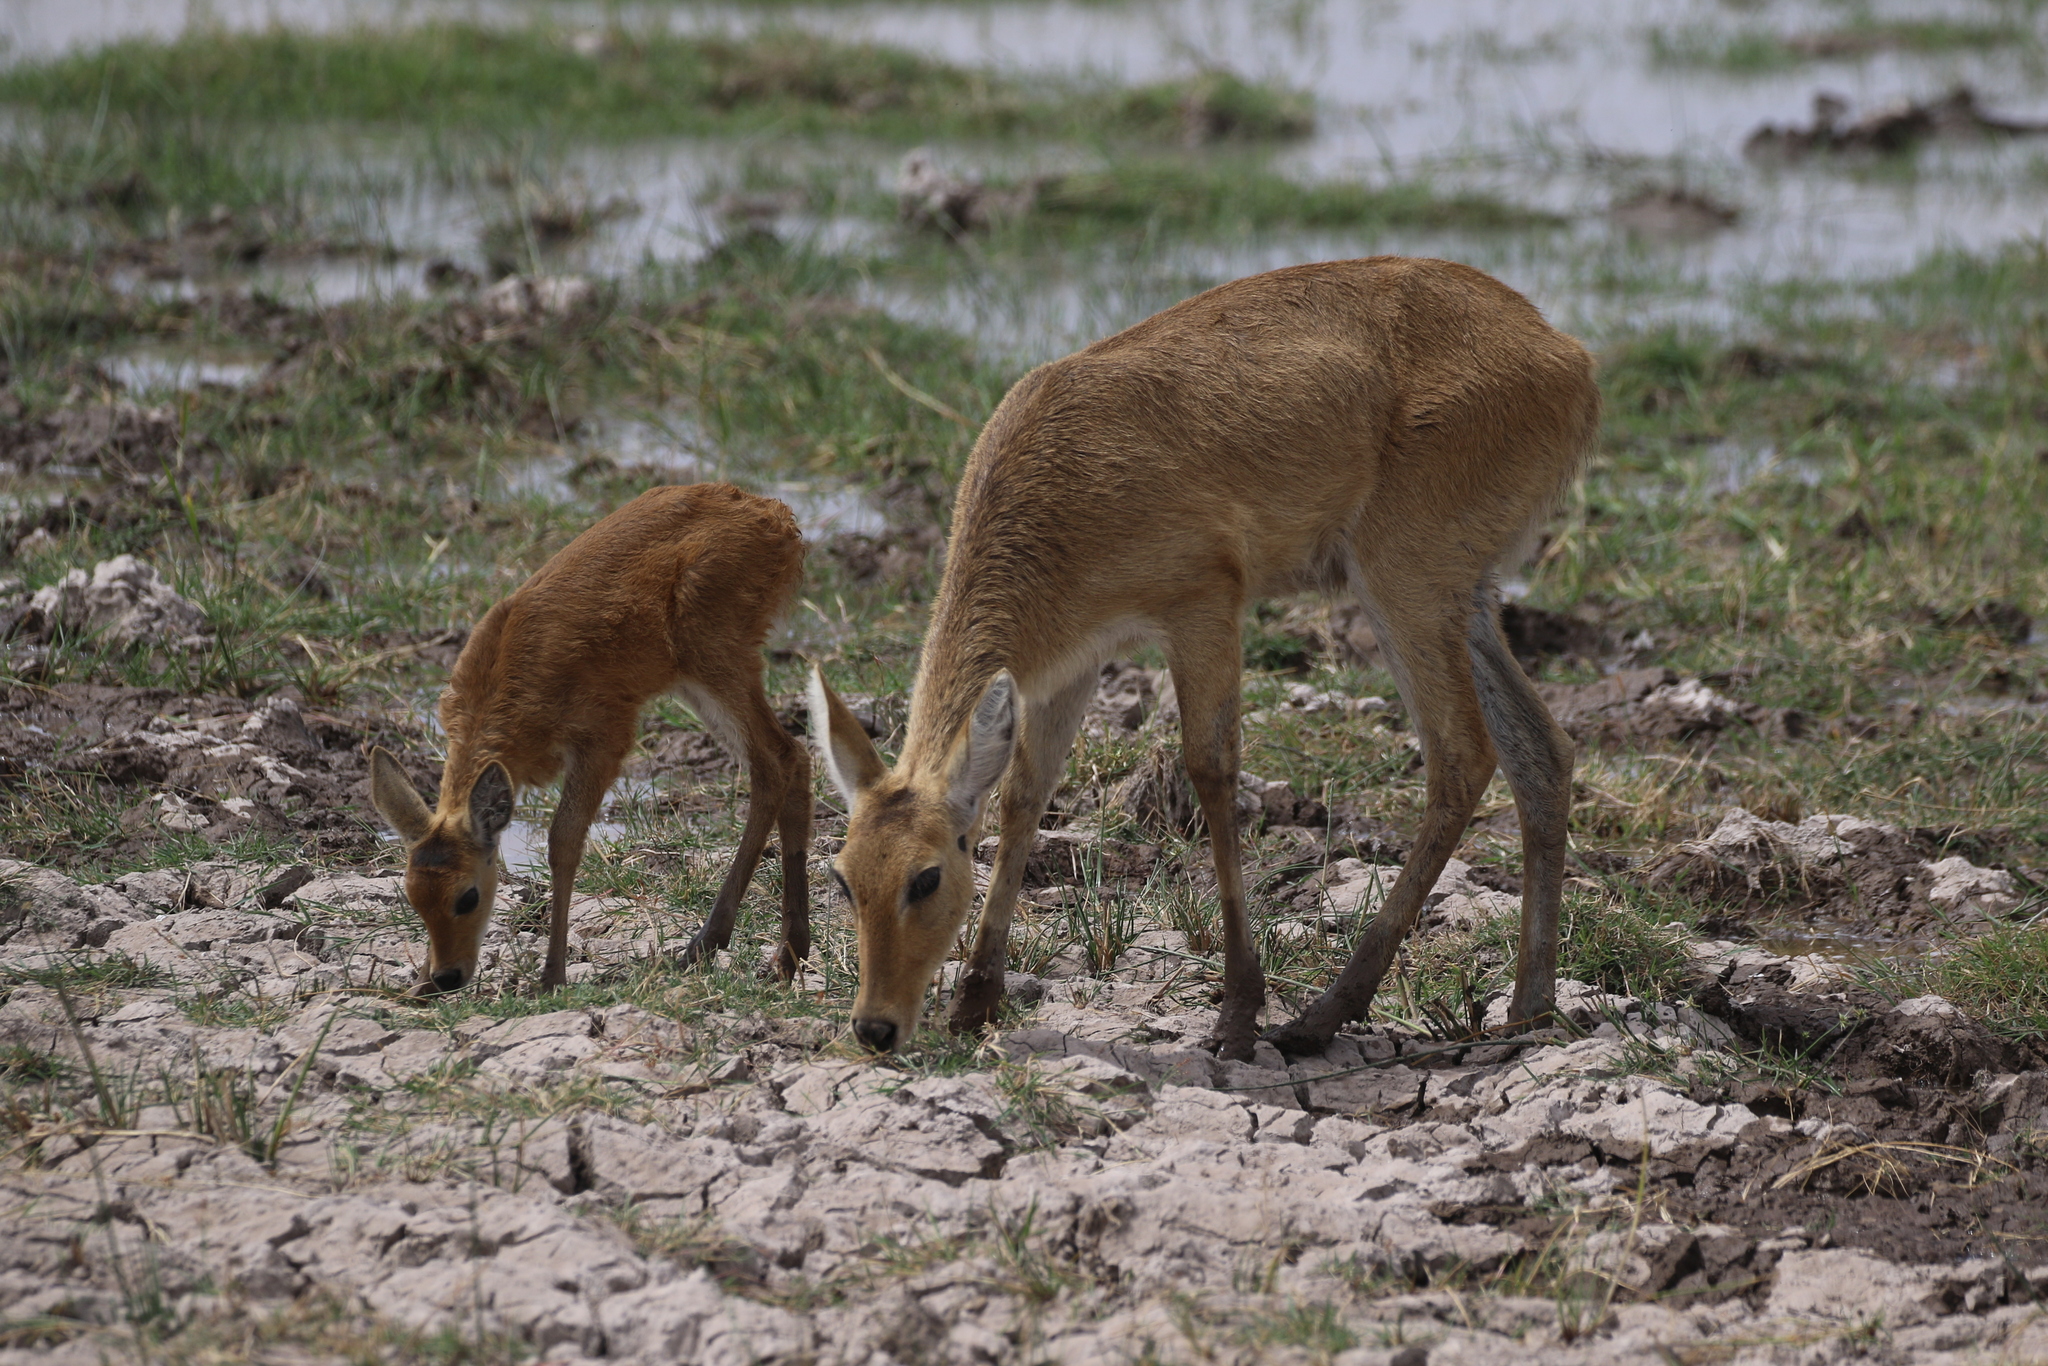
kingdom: Animalia
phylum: Chordata
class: Mammalia
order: Artiodactyla
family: Bovidae
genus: Redunca
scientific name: Redunca redunca
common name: Common reedbuck
